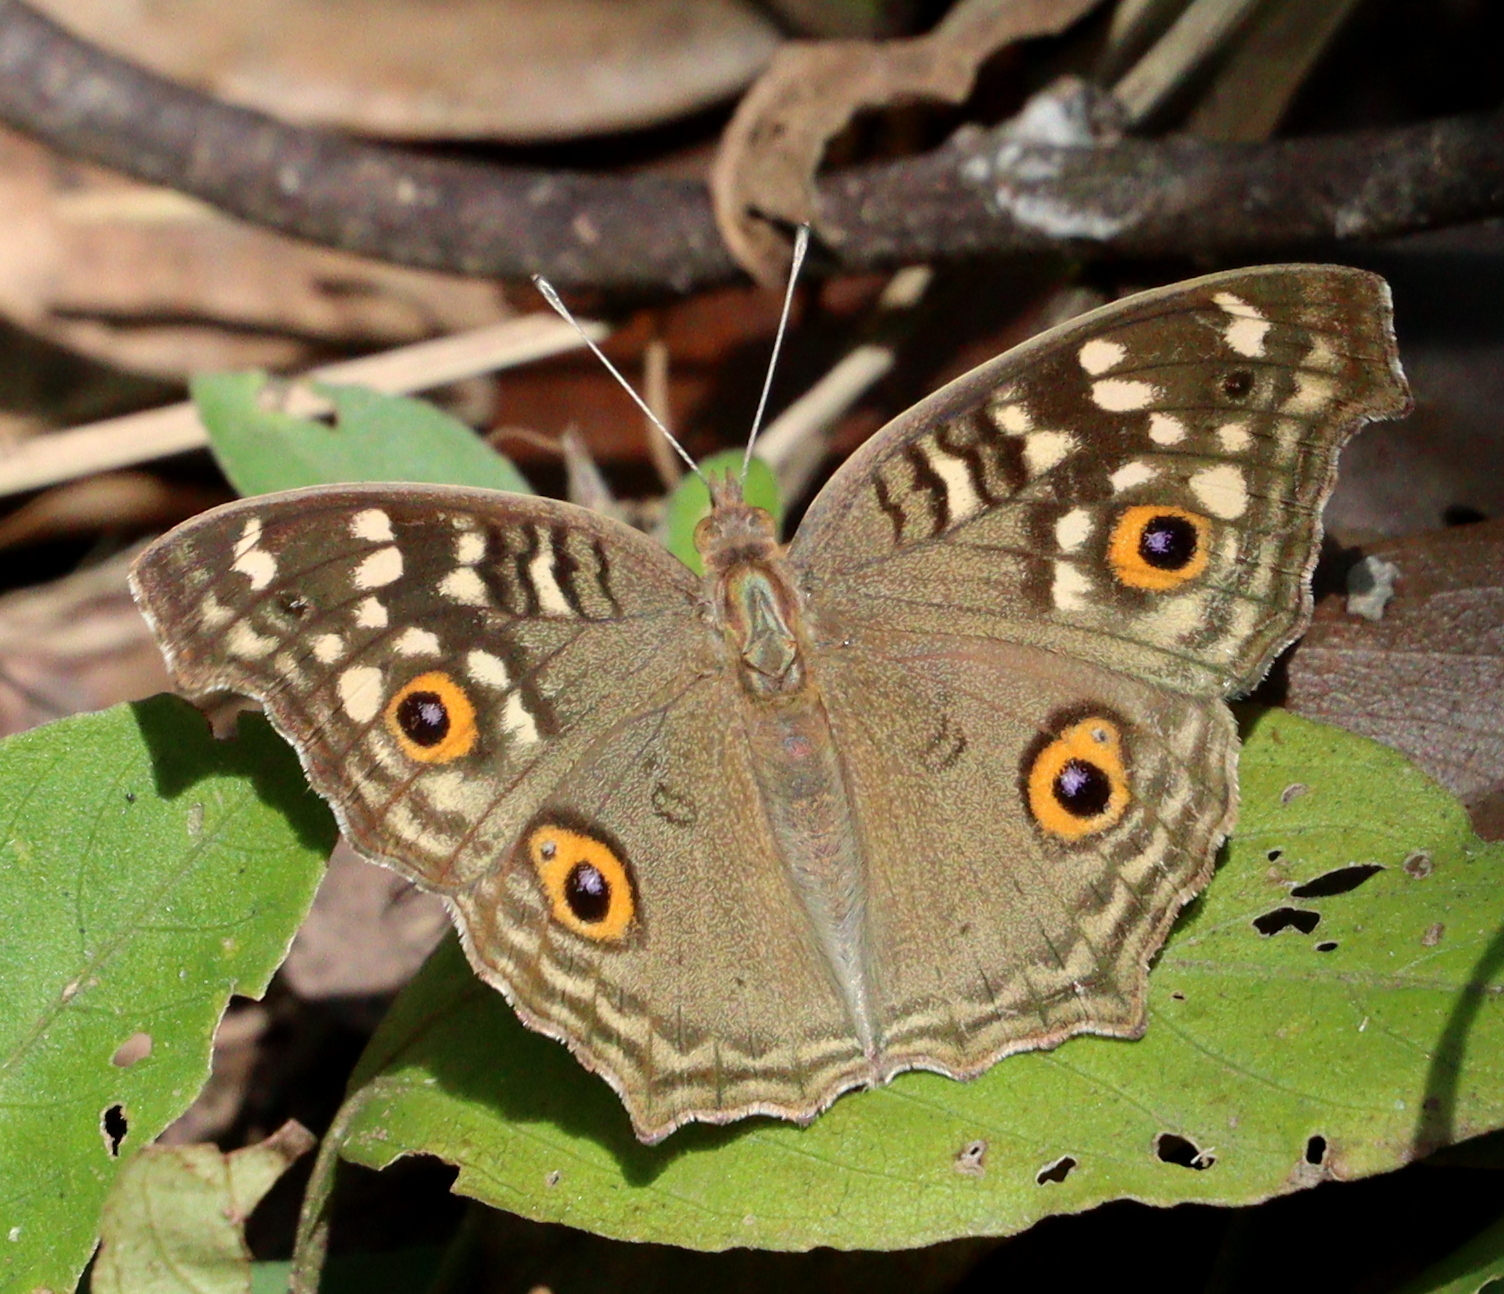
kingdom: Animalia
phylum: Arthropoda
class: Insecta
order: Lepidoptera
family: Nymphalidae
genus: Junonia
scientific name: Junonia lemonias
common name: Lemon pansy
